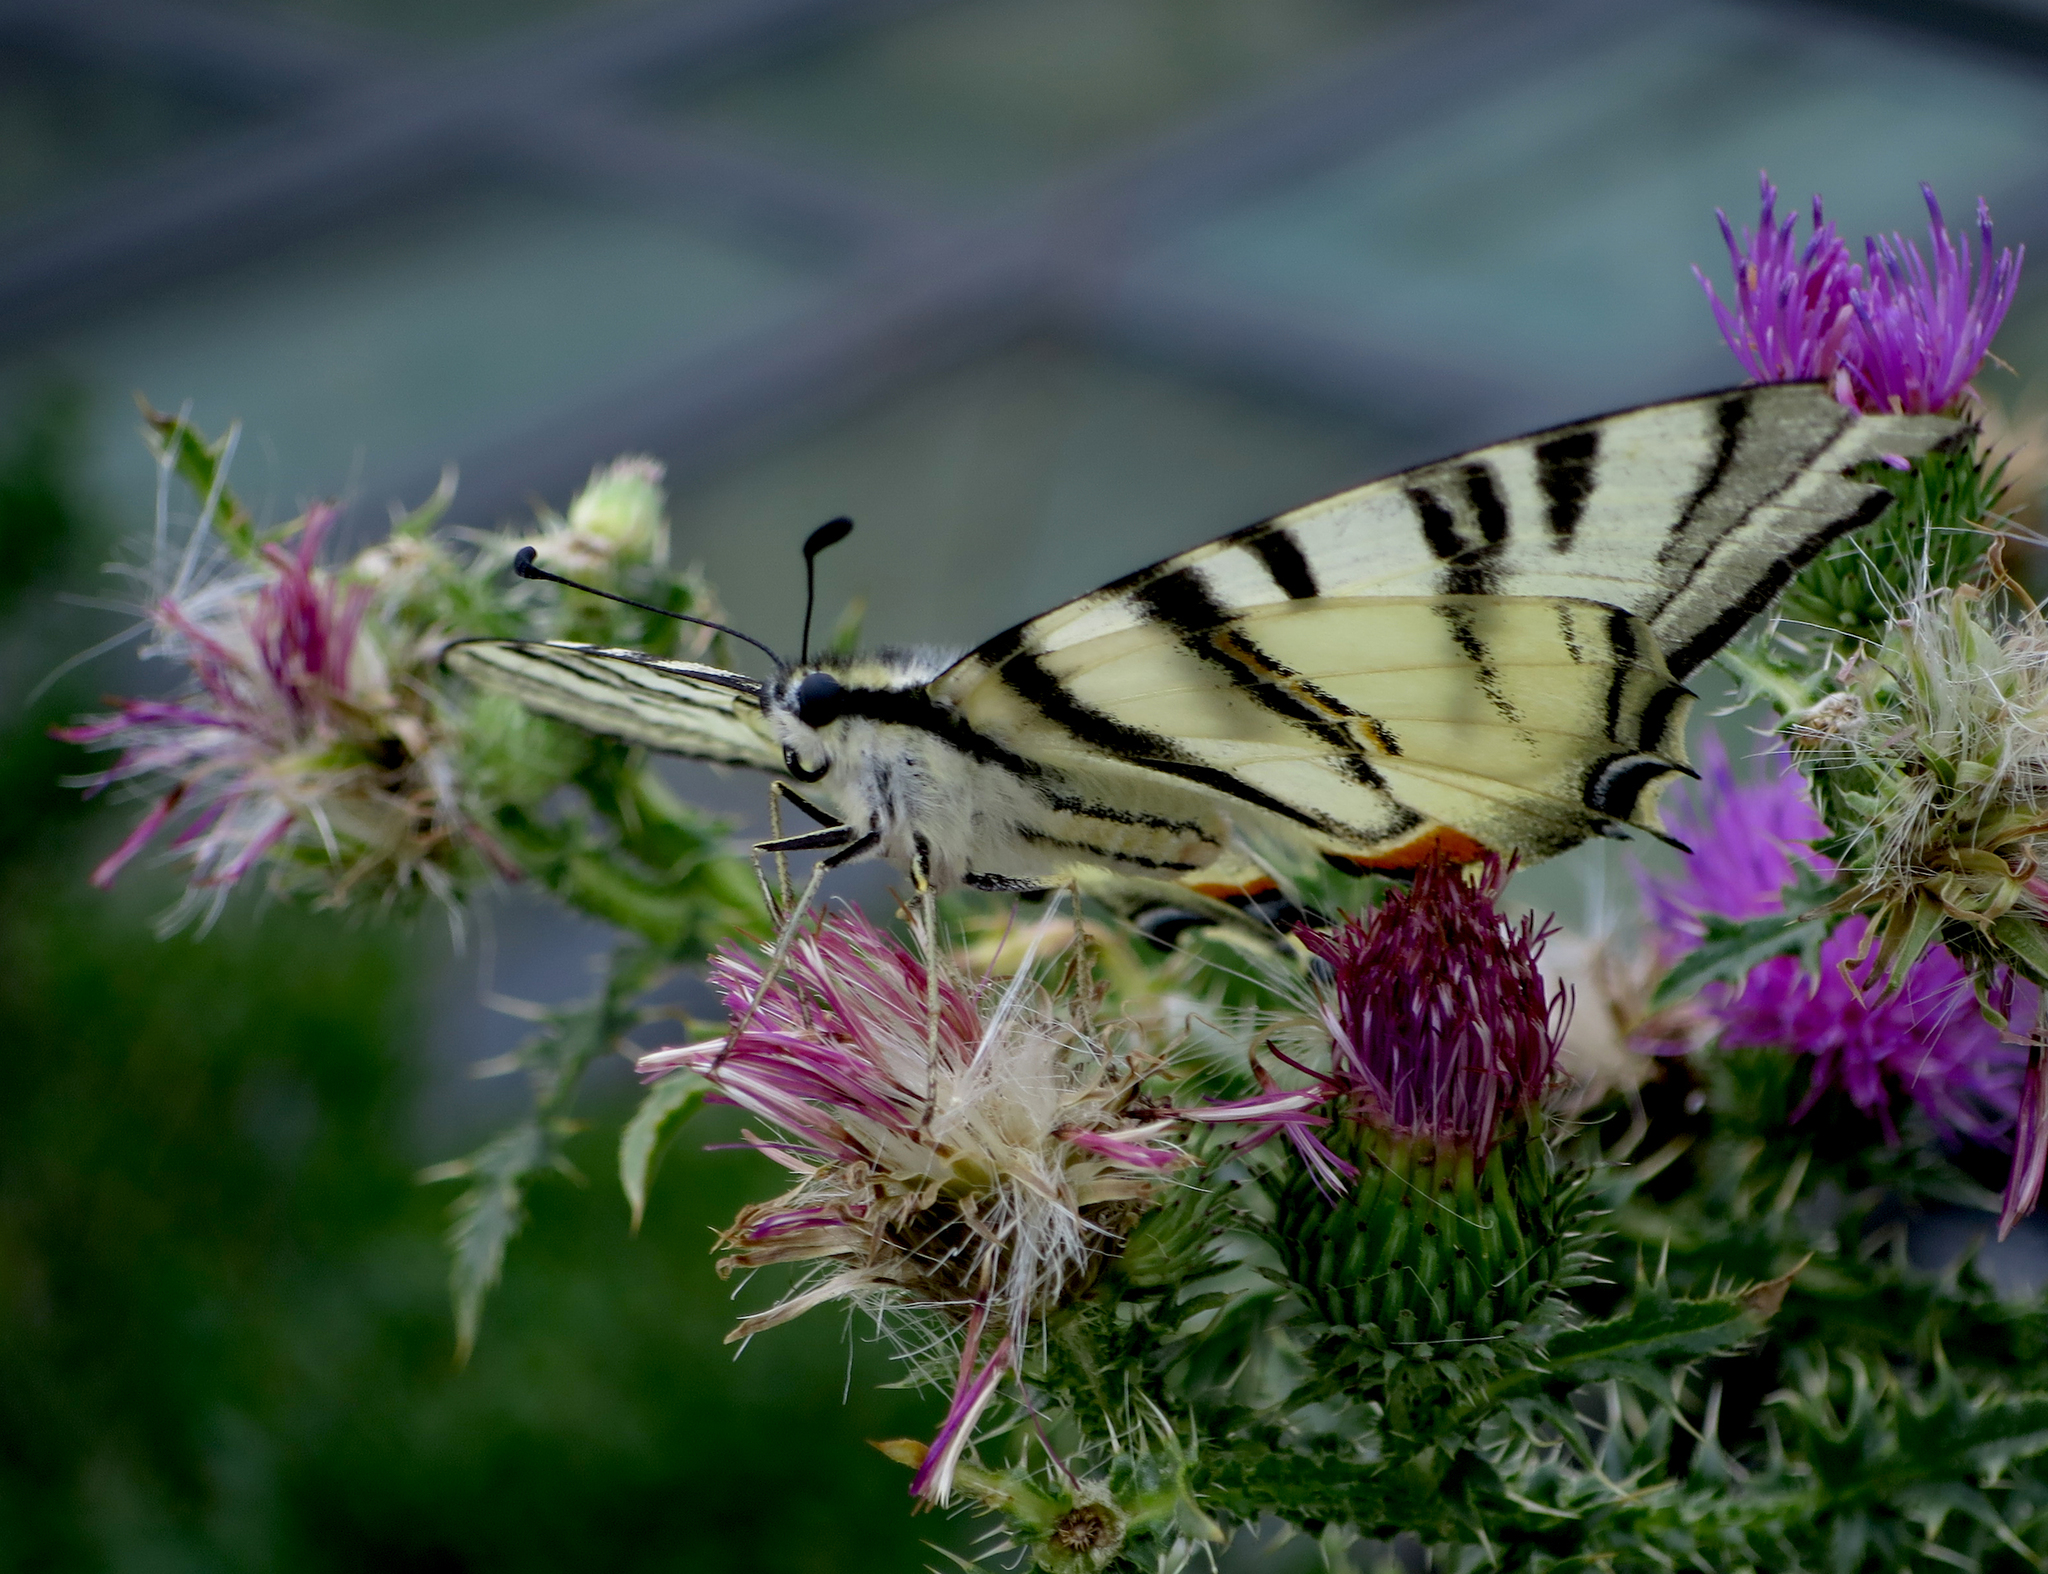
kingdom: Animalia
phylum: Arthropoda
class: Insecta
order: Lepidoptera
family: Papilionidae
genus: Iphiclides
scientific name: Iphiclides podalirius
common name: Scarce swallowtail
